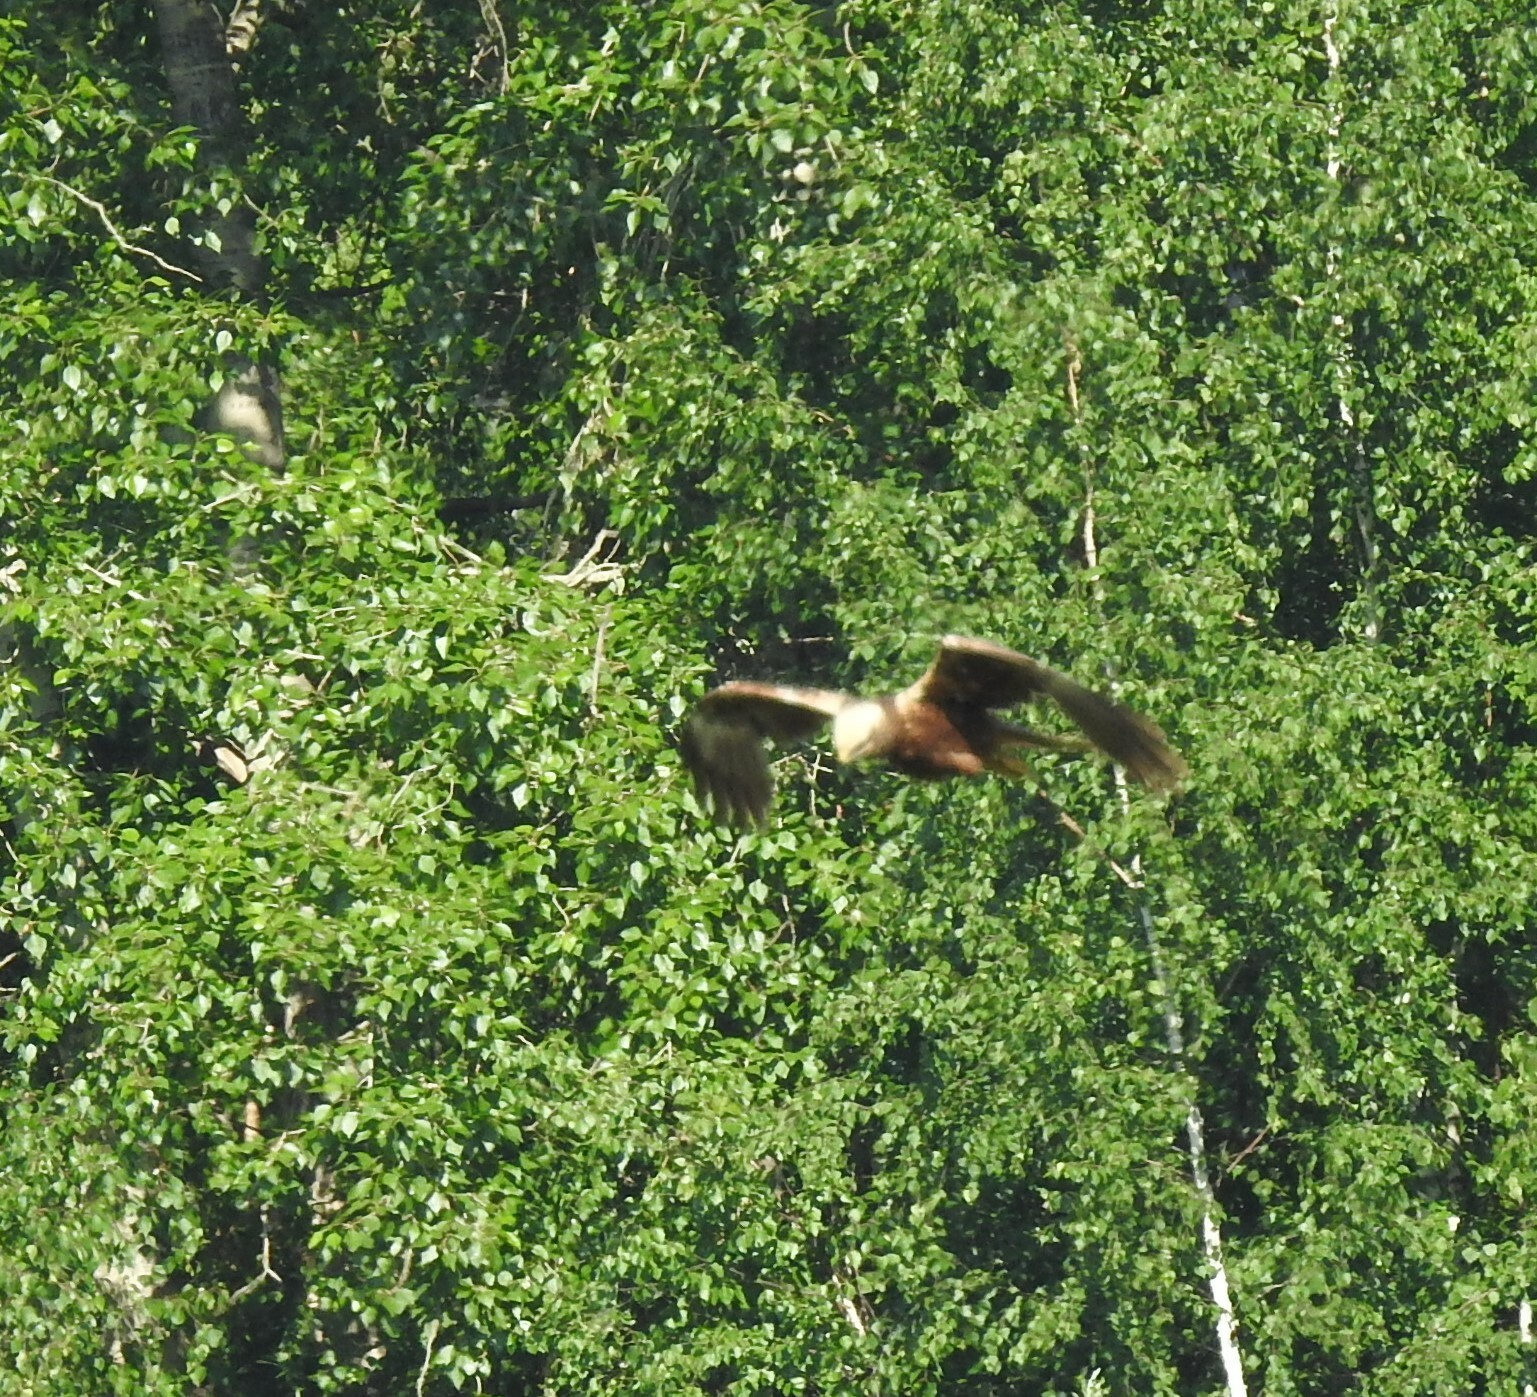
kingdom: Animalia
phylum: Chordata
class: Aves
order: Accipitriformes
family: Accipitridae
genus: Circus
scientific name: Circus aeruginosus
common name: Western marsh harrier
